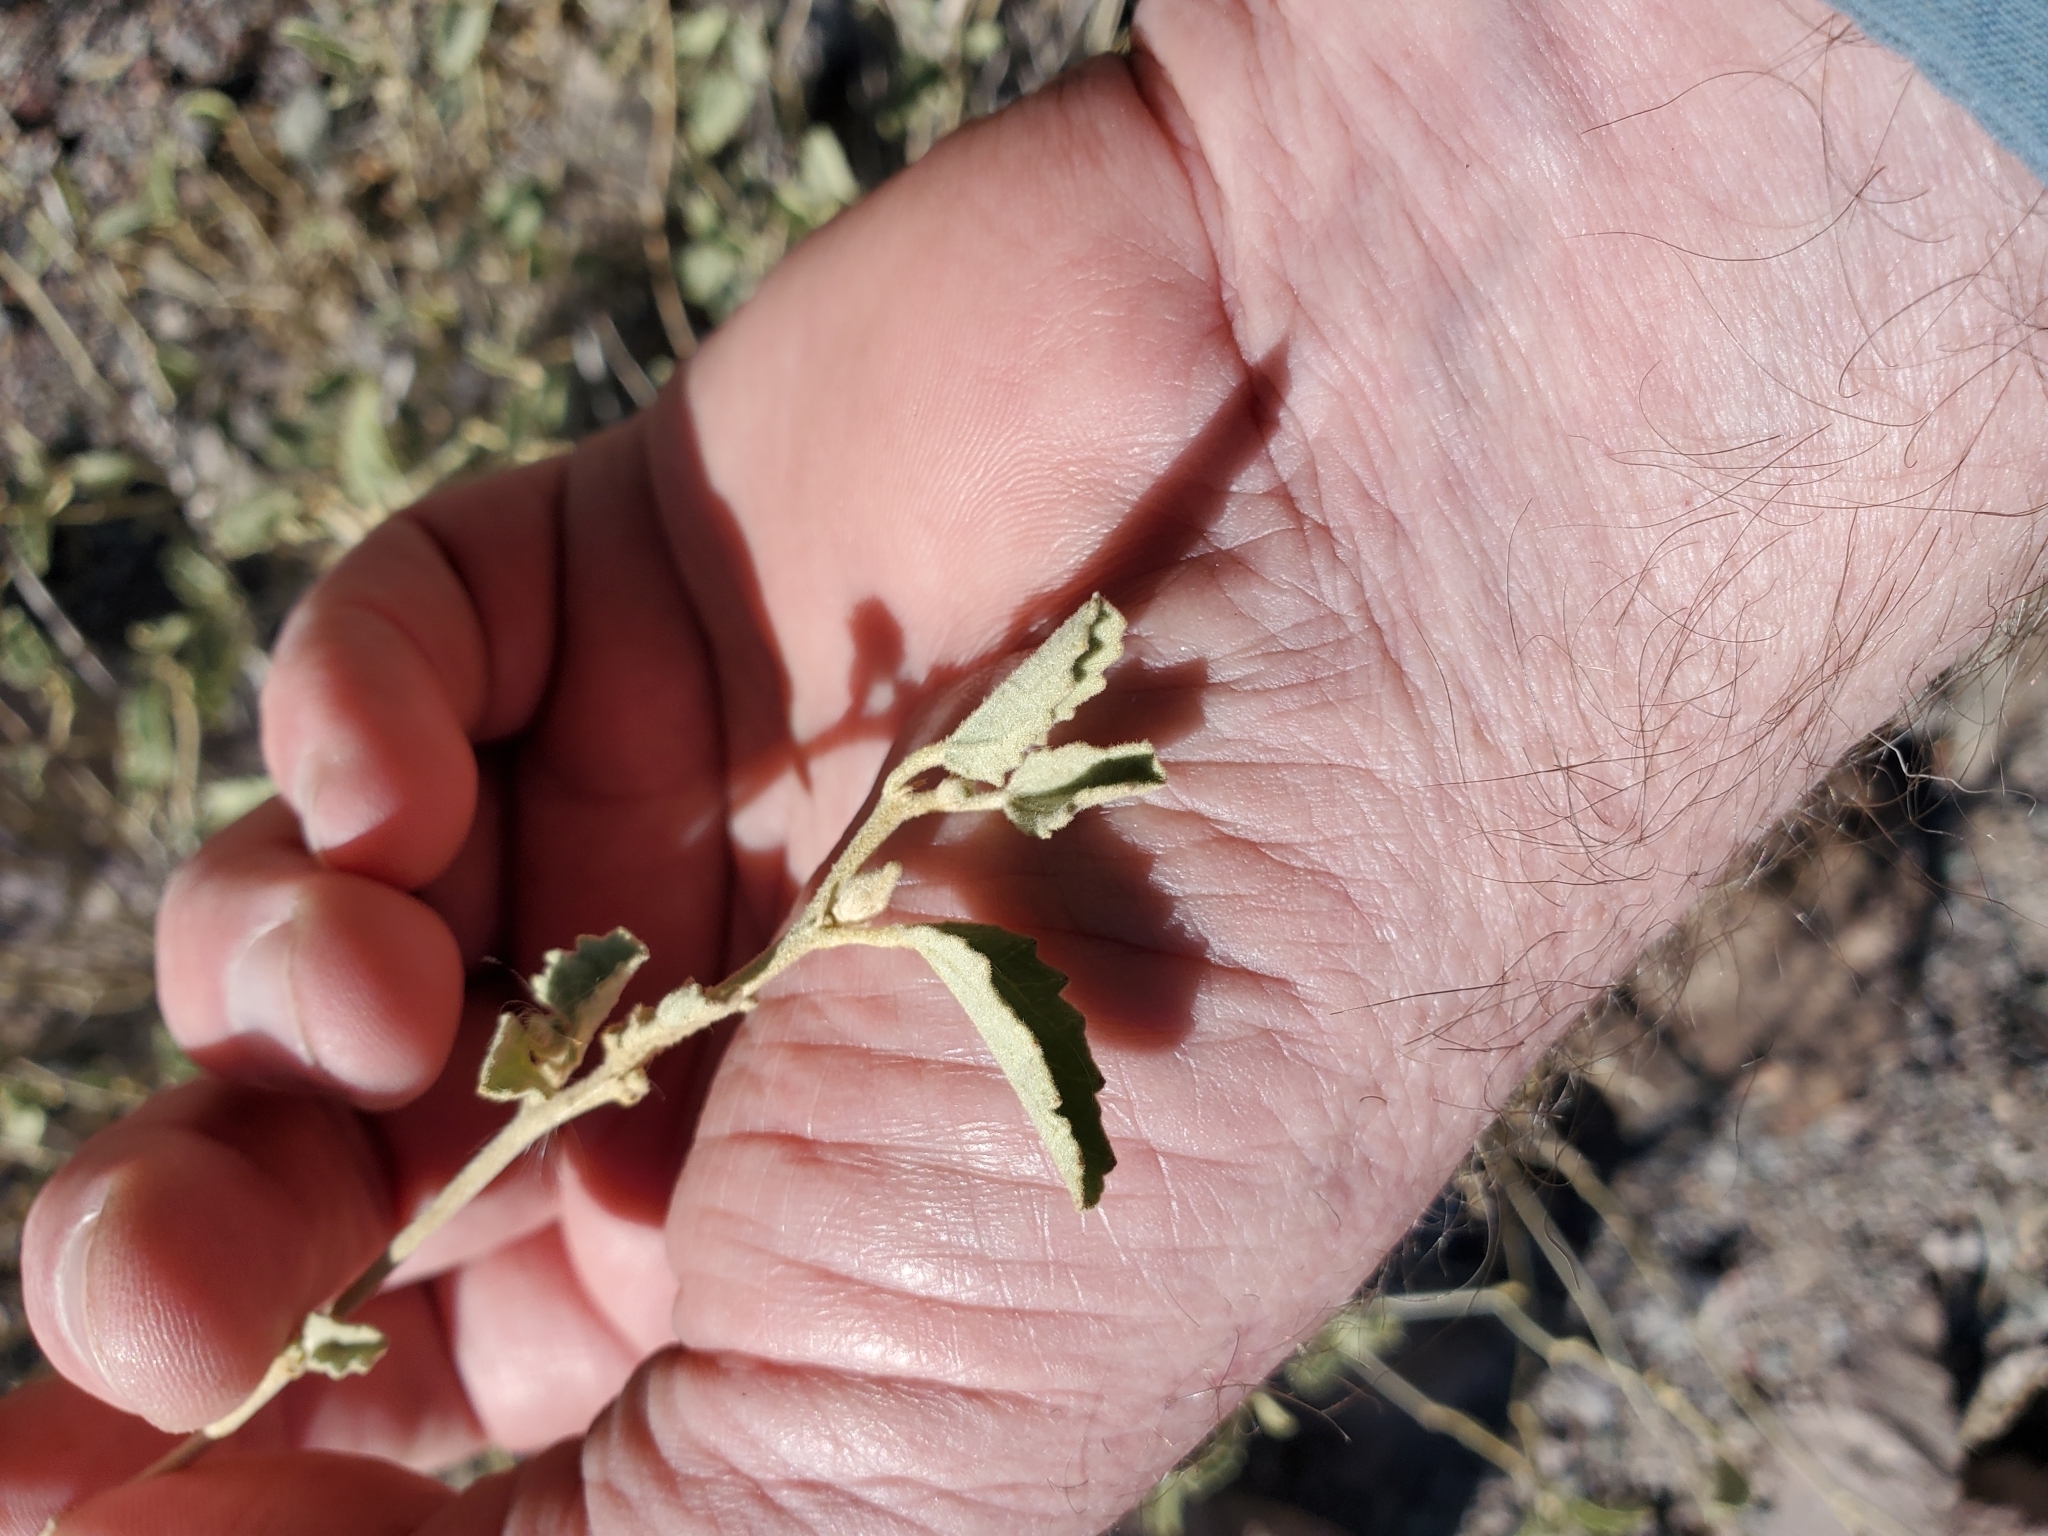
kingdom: Plantae
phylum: Tracheophyta
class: Magnoliopsida
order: Malvales
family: Malvaceae
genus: Hibiscus
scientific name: Hibiscus denudatus
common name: Paleface
